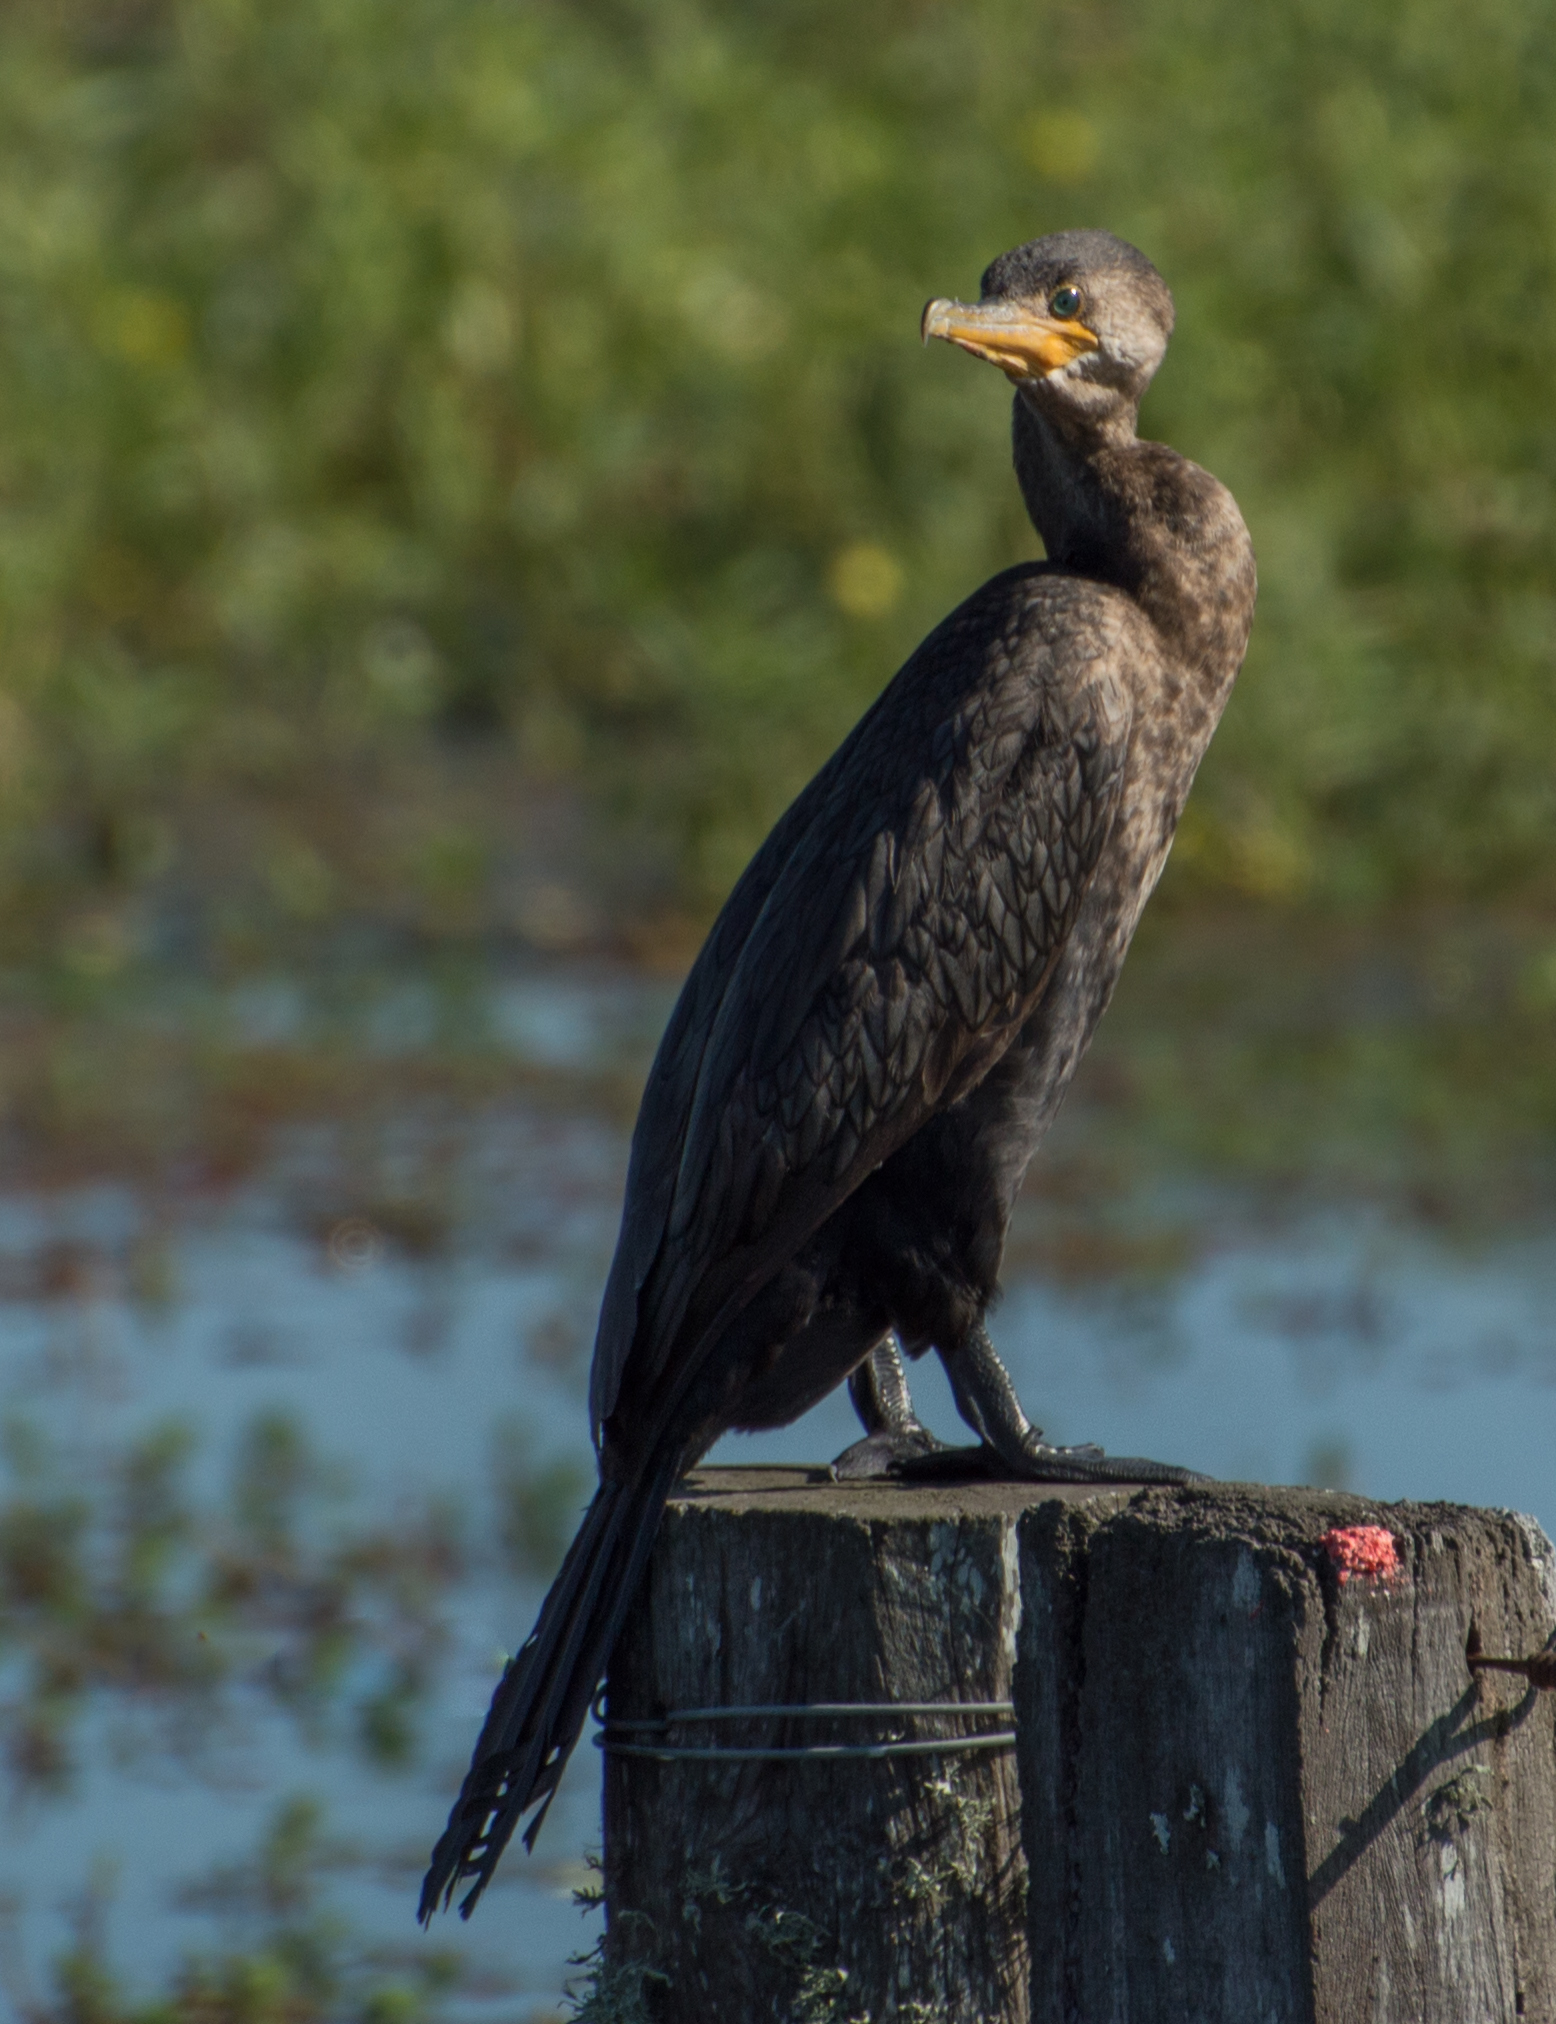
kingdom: Animalia
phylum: Chordata
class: Aves
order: Suliformes
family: Phalacrocoracidae
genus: Phalacrocorax
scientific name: Phalacrocorax brasilianus
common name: Neotropic cormorant
